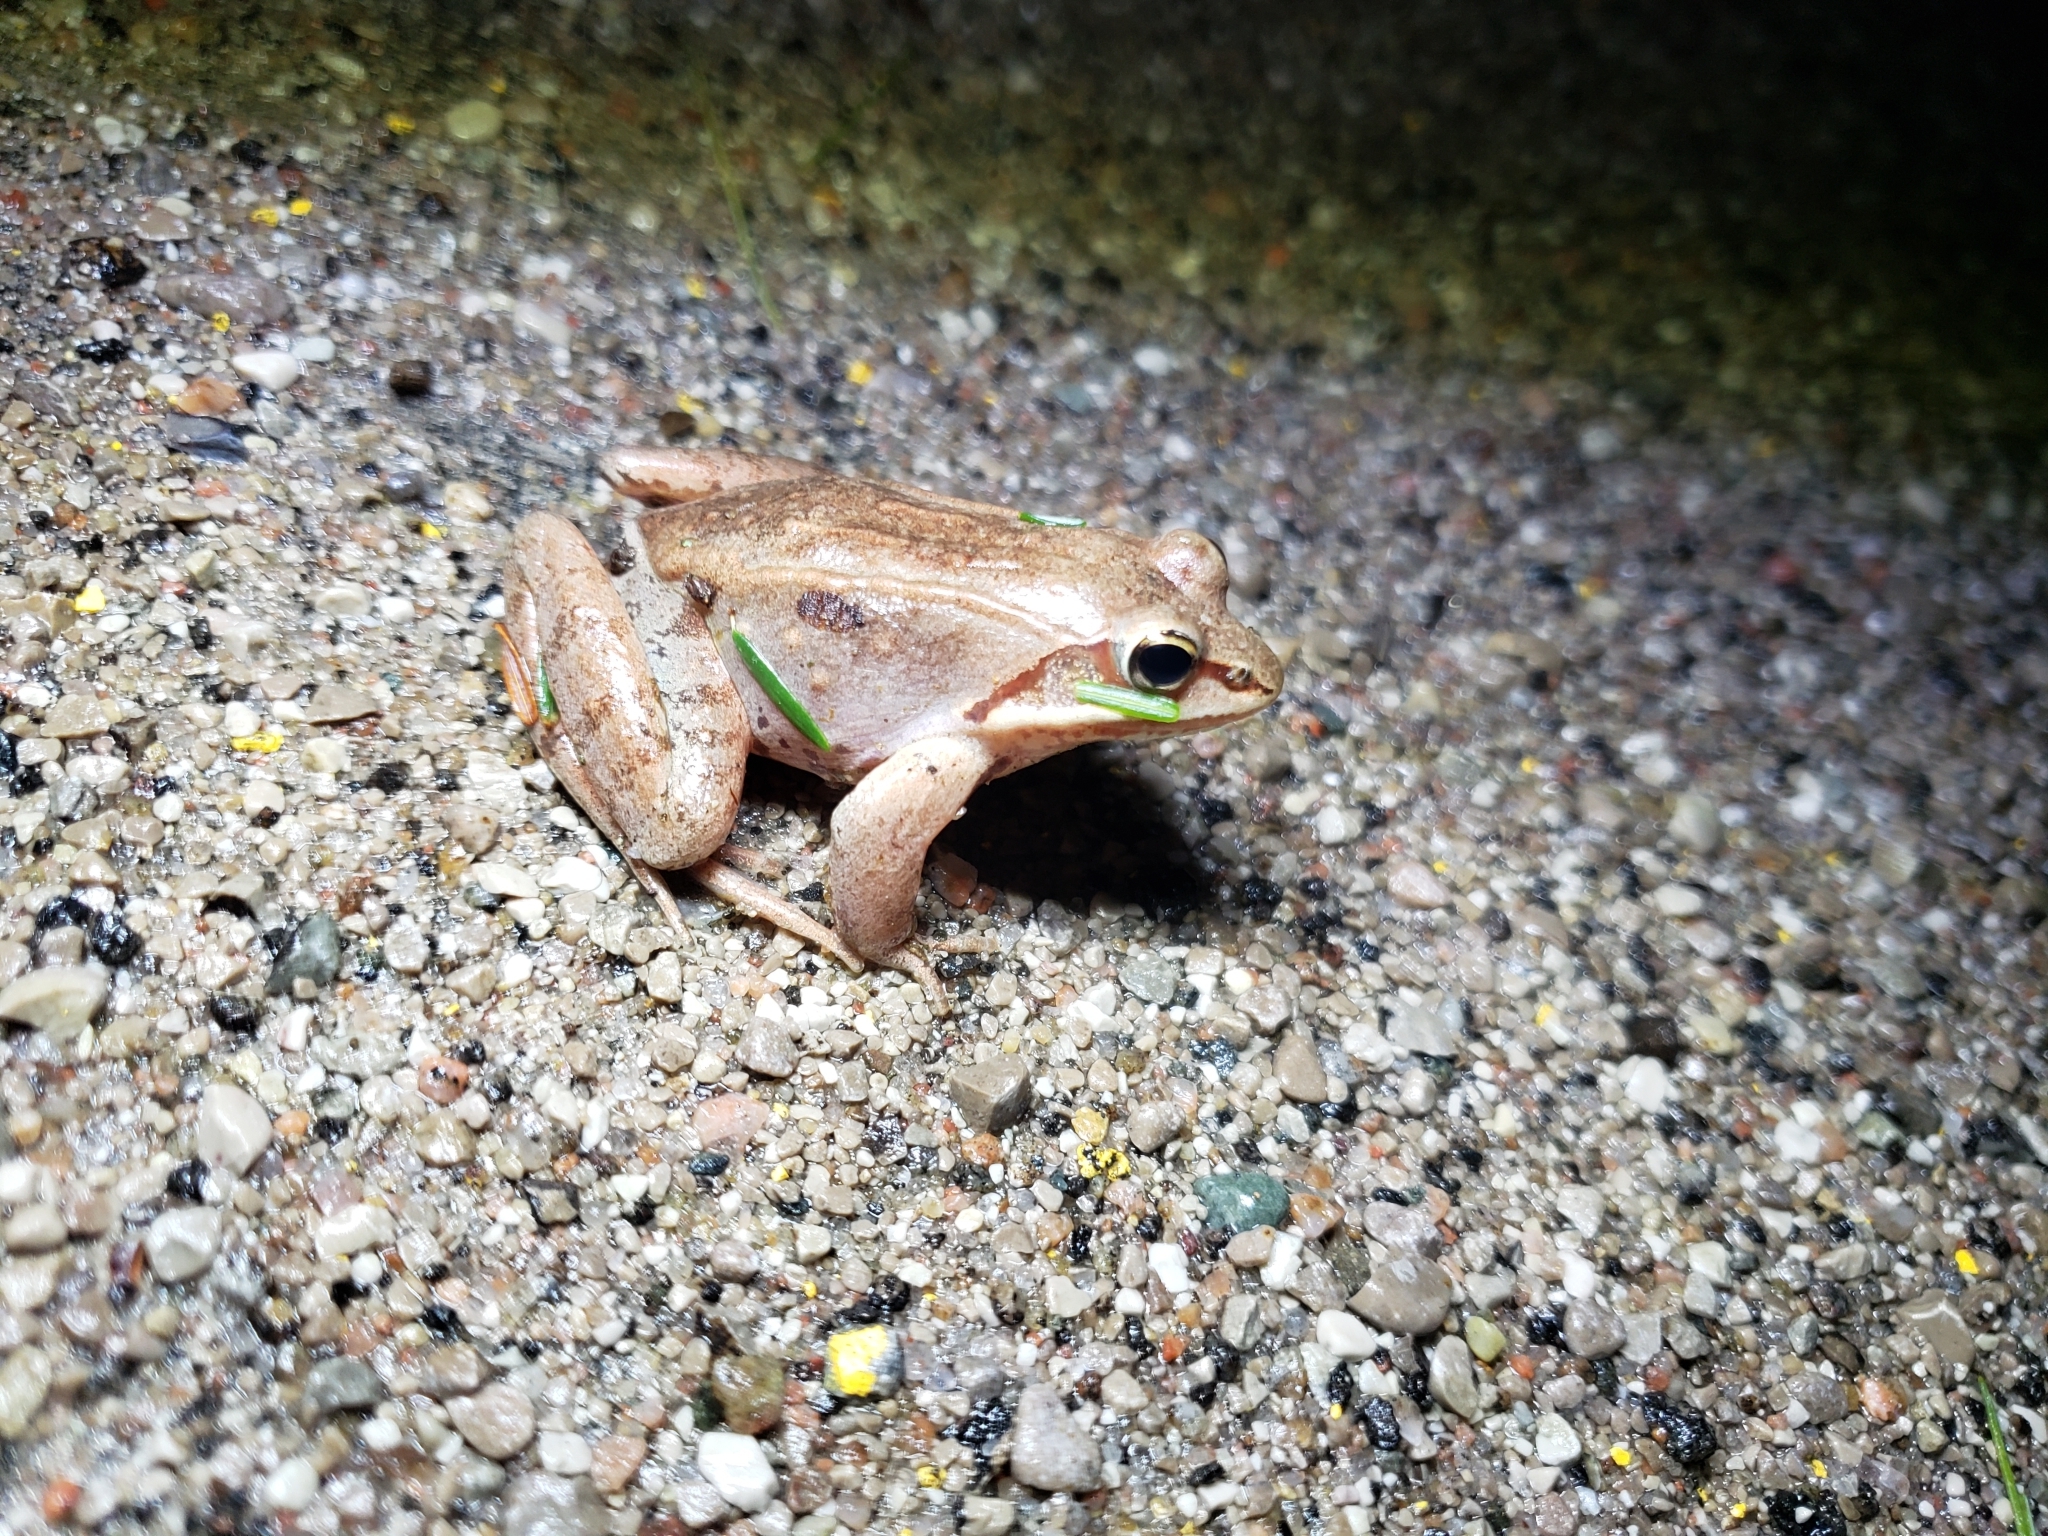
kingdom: Animalia
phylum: Chordata
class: Amphibia
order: Anura
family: Ranidae
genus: Lithobates
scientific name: Lithobates sylvaticus
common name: Wood frog
